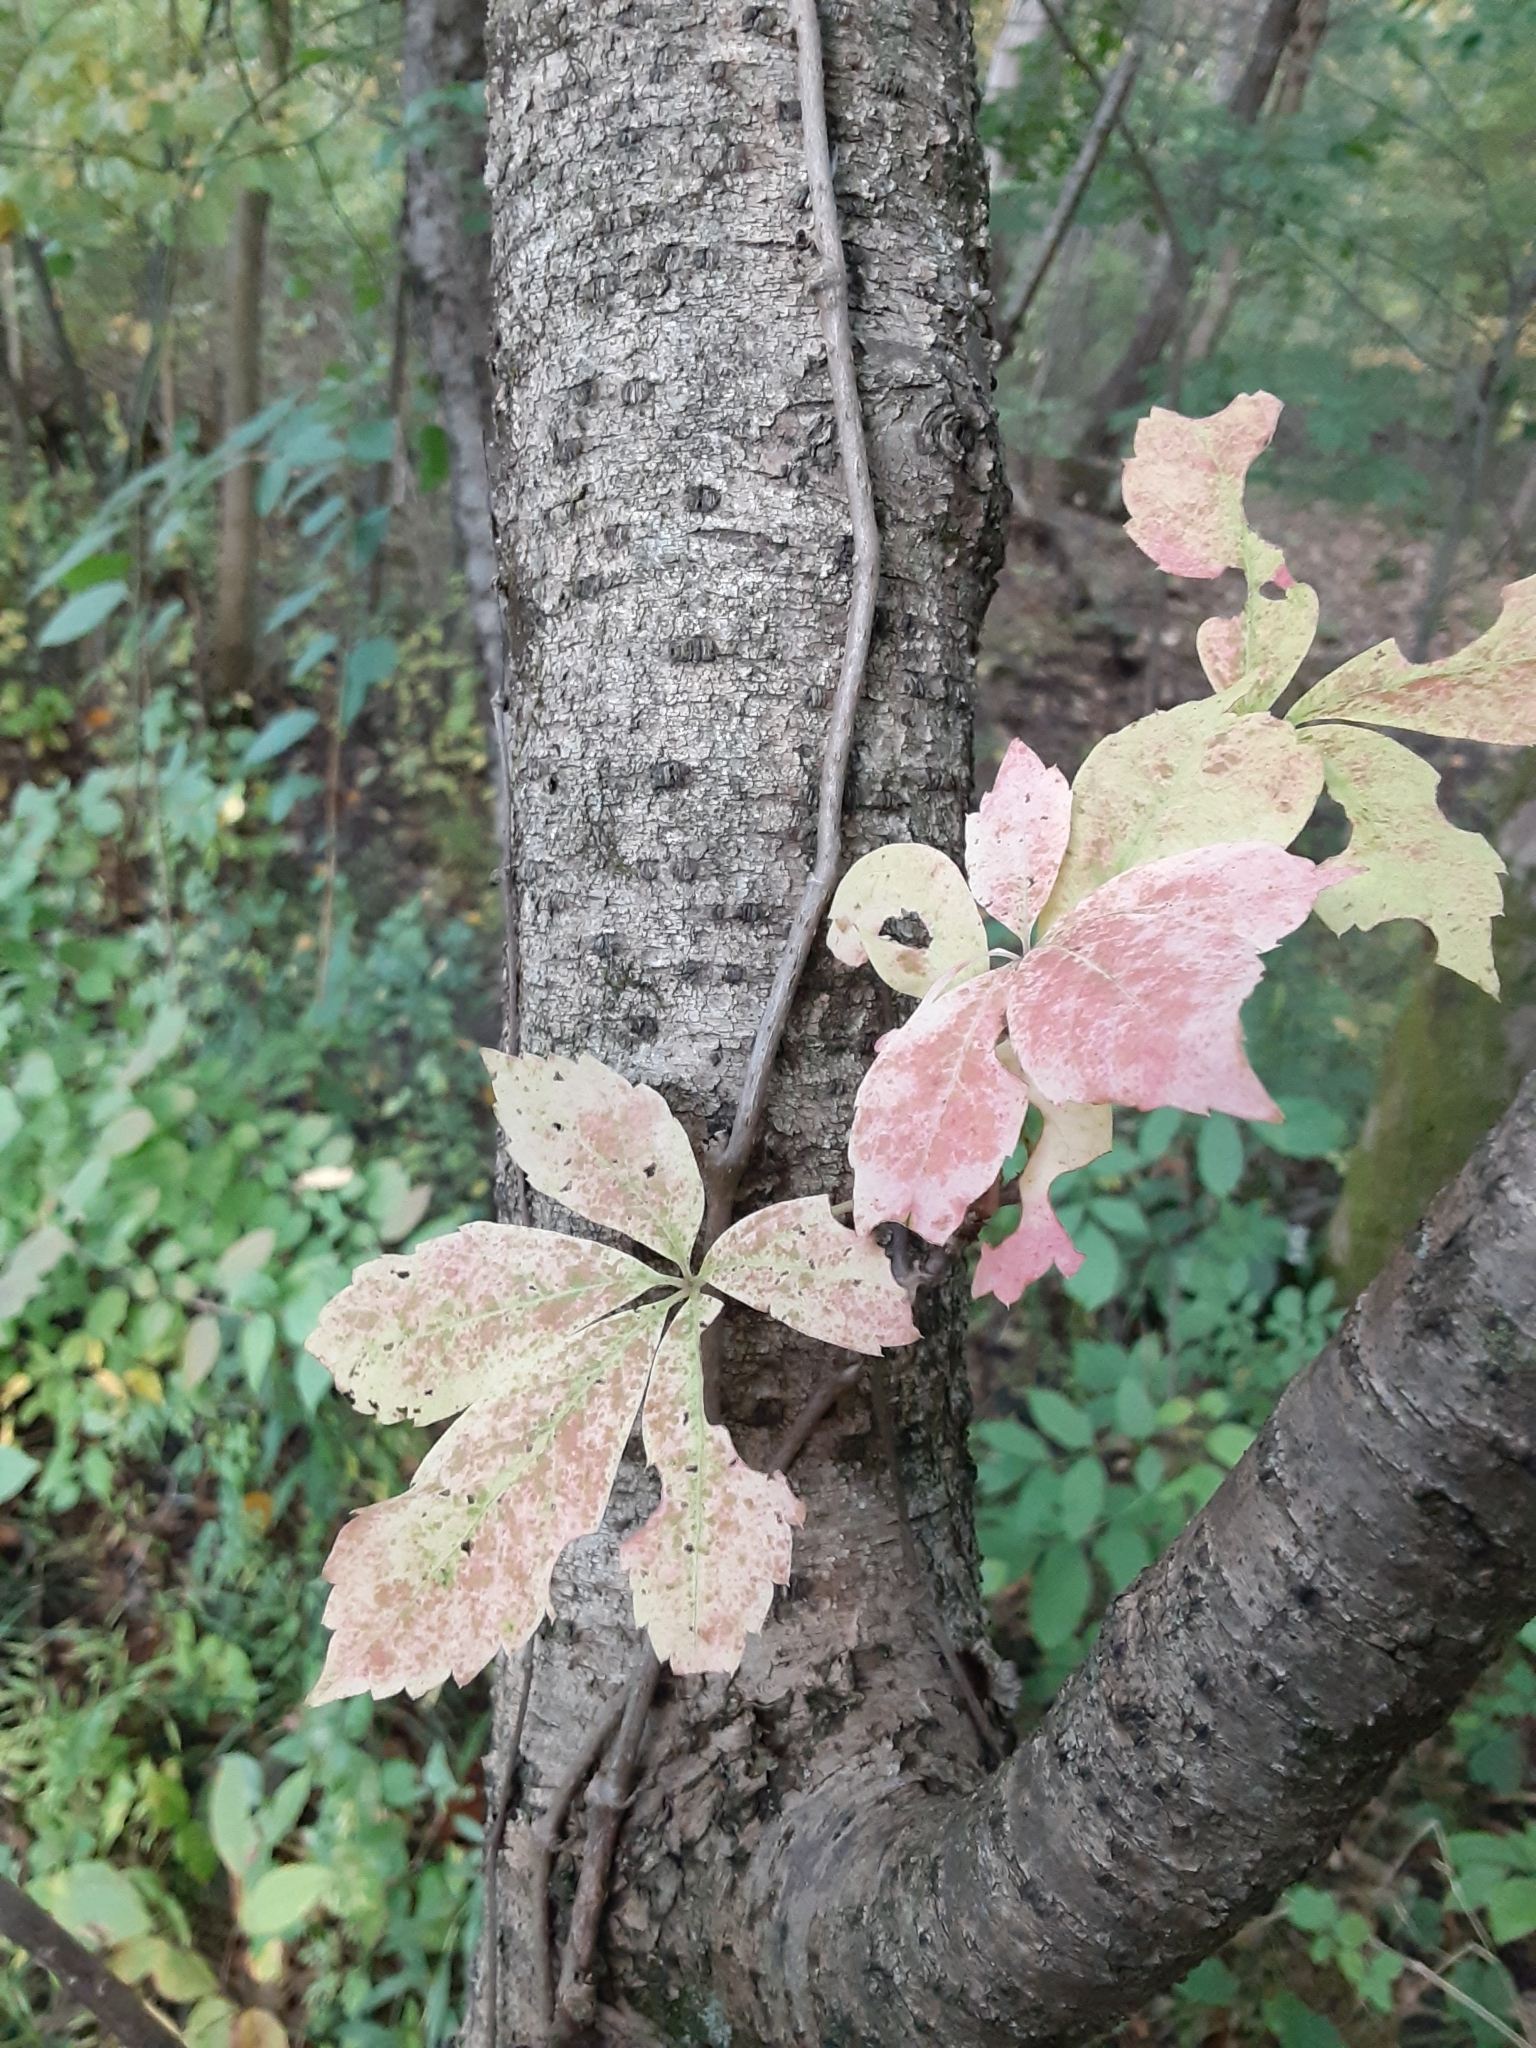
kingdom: Plantae
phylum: Tracheophyta
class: Magnoliopsida
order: Vitales
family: Vitaceae
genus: Parthenocissus
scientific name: Parthenocissus quinquefolia
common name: Virginia-creeper
